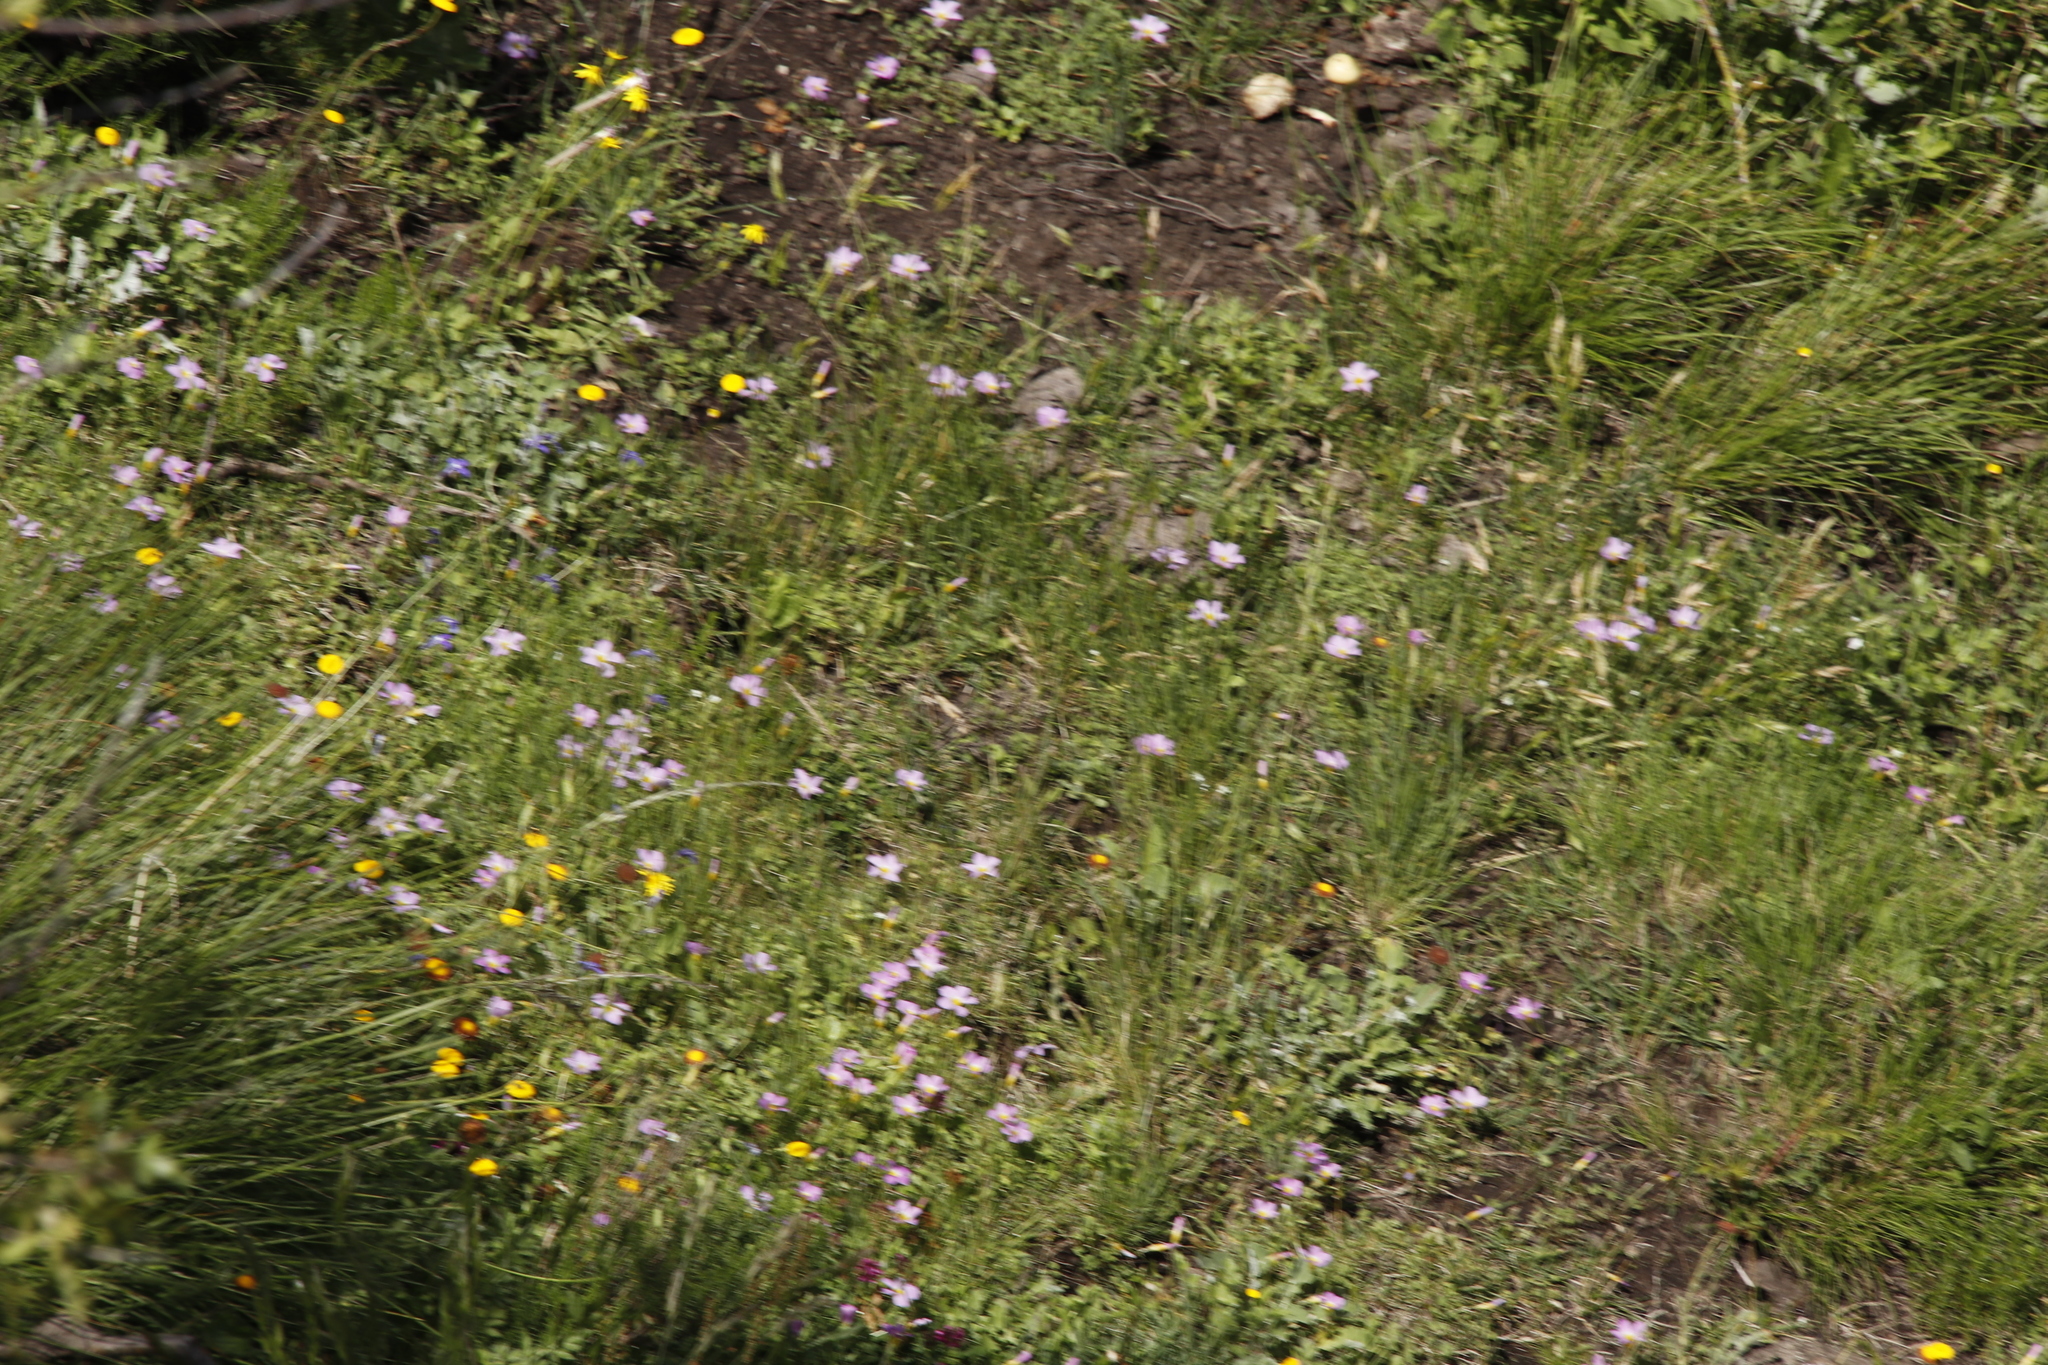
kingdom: Plantae
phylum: Tracheophyta
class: Magnoliopsida
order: Oxalidales
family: Oxalidaceae
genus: Oxalis
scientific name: Oxalis obliquifolia
